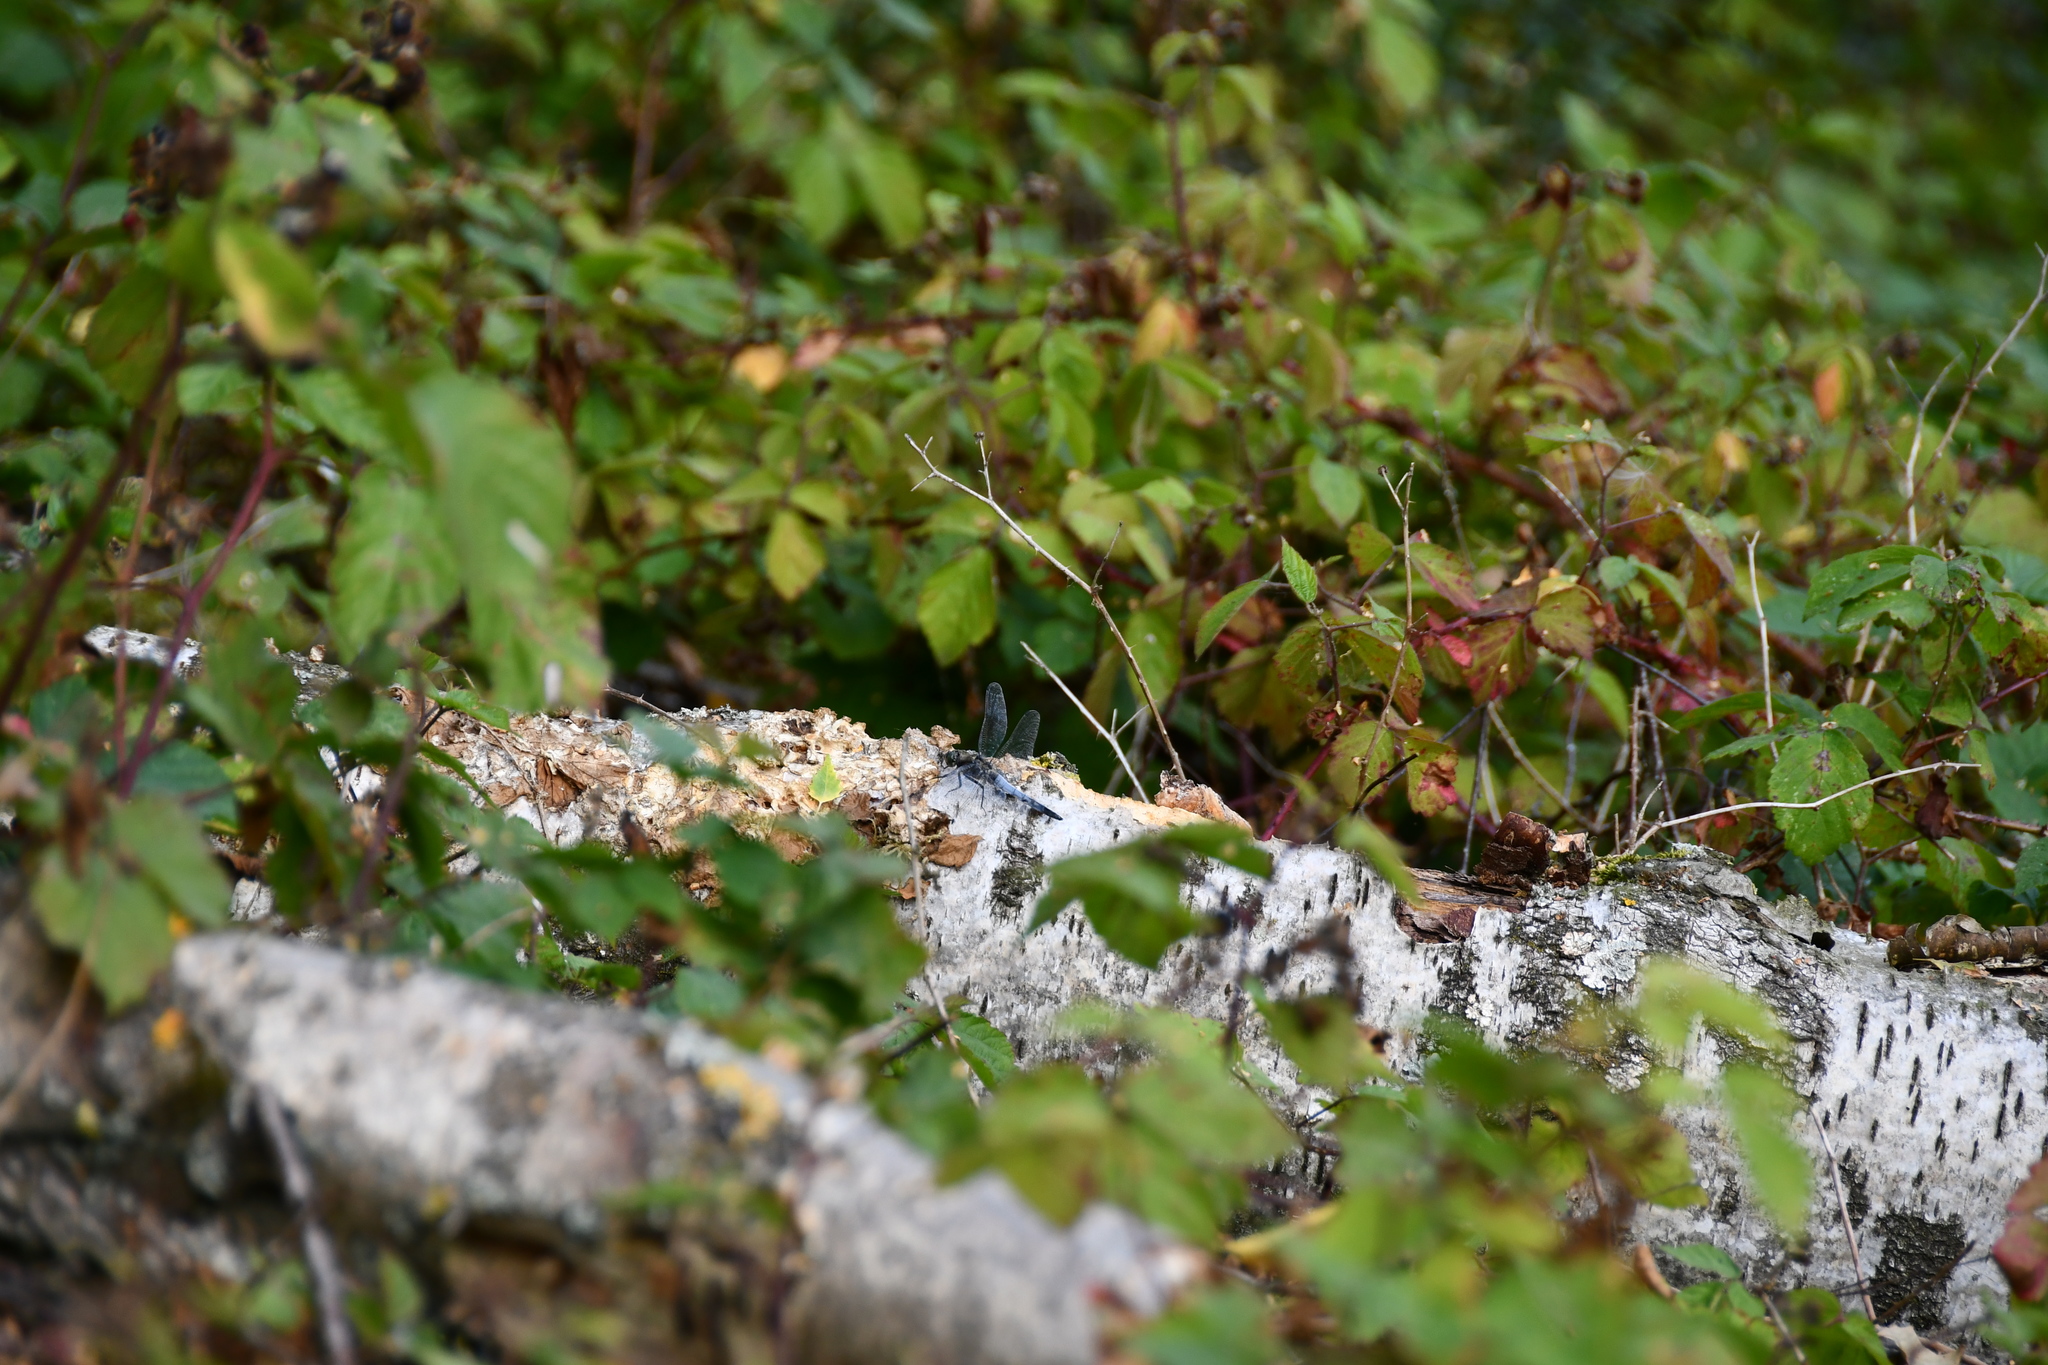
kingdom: Animalia
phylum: Arthropoda
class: Insecta
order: Odonata
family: Libellulidae
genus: Orthetrum
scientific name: Orthetrum cancellatum
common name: Black-tailed skimmer
